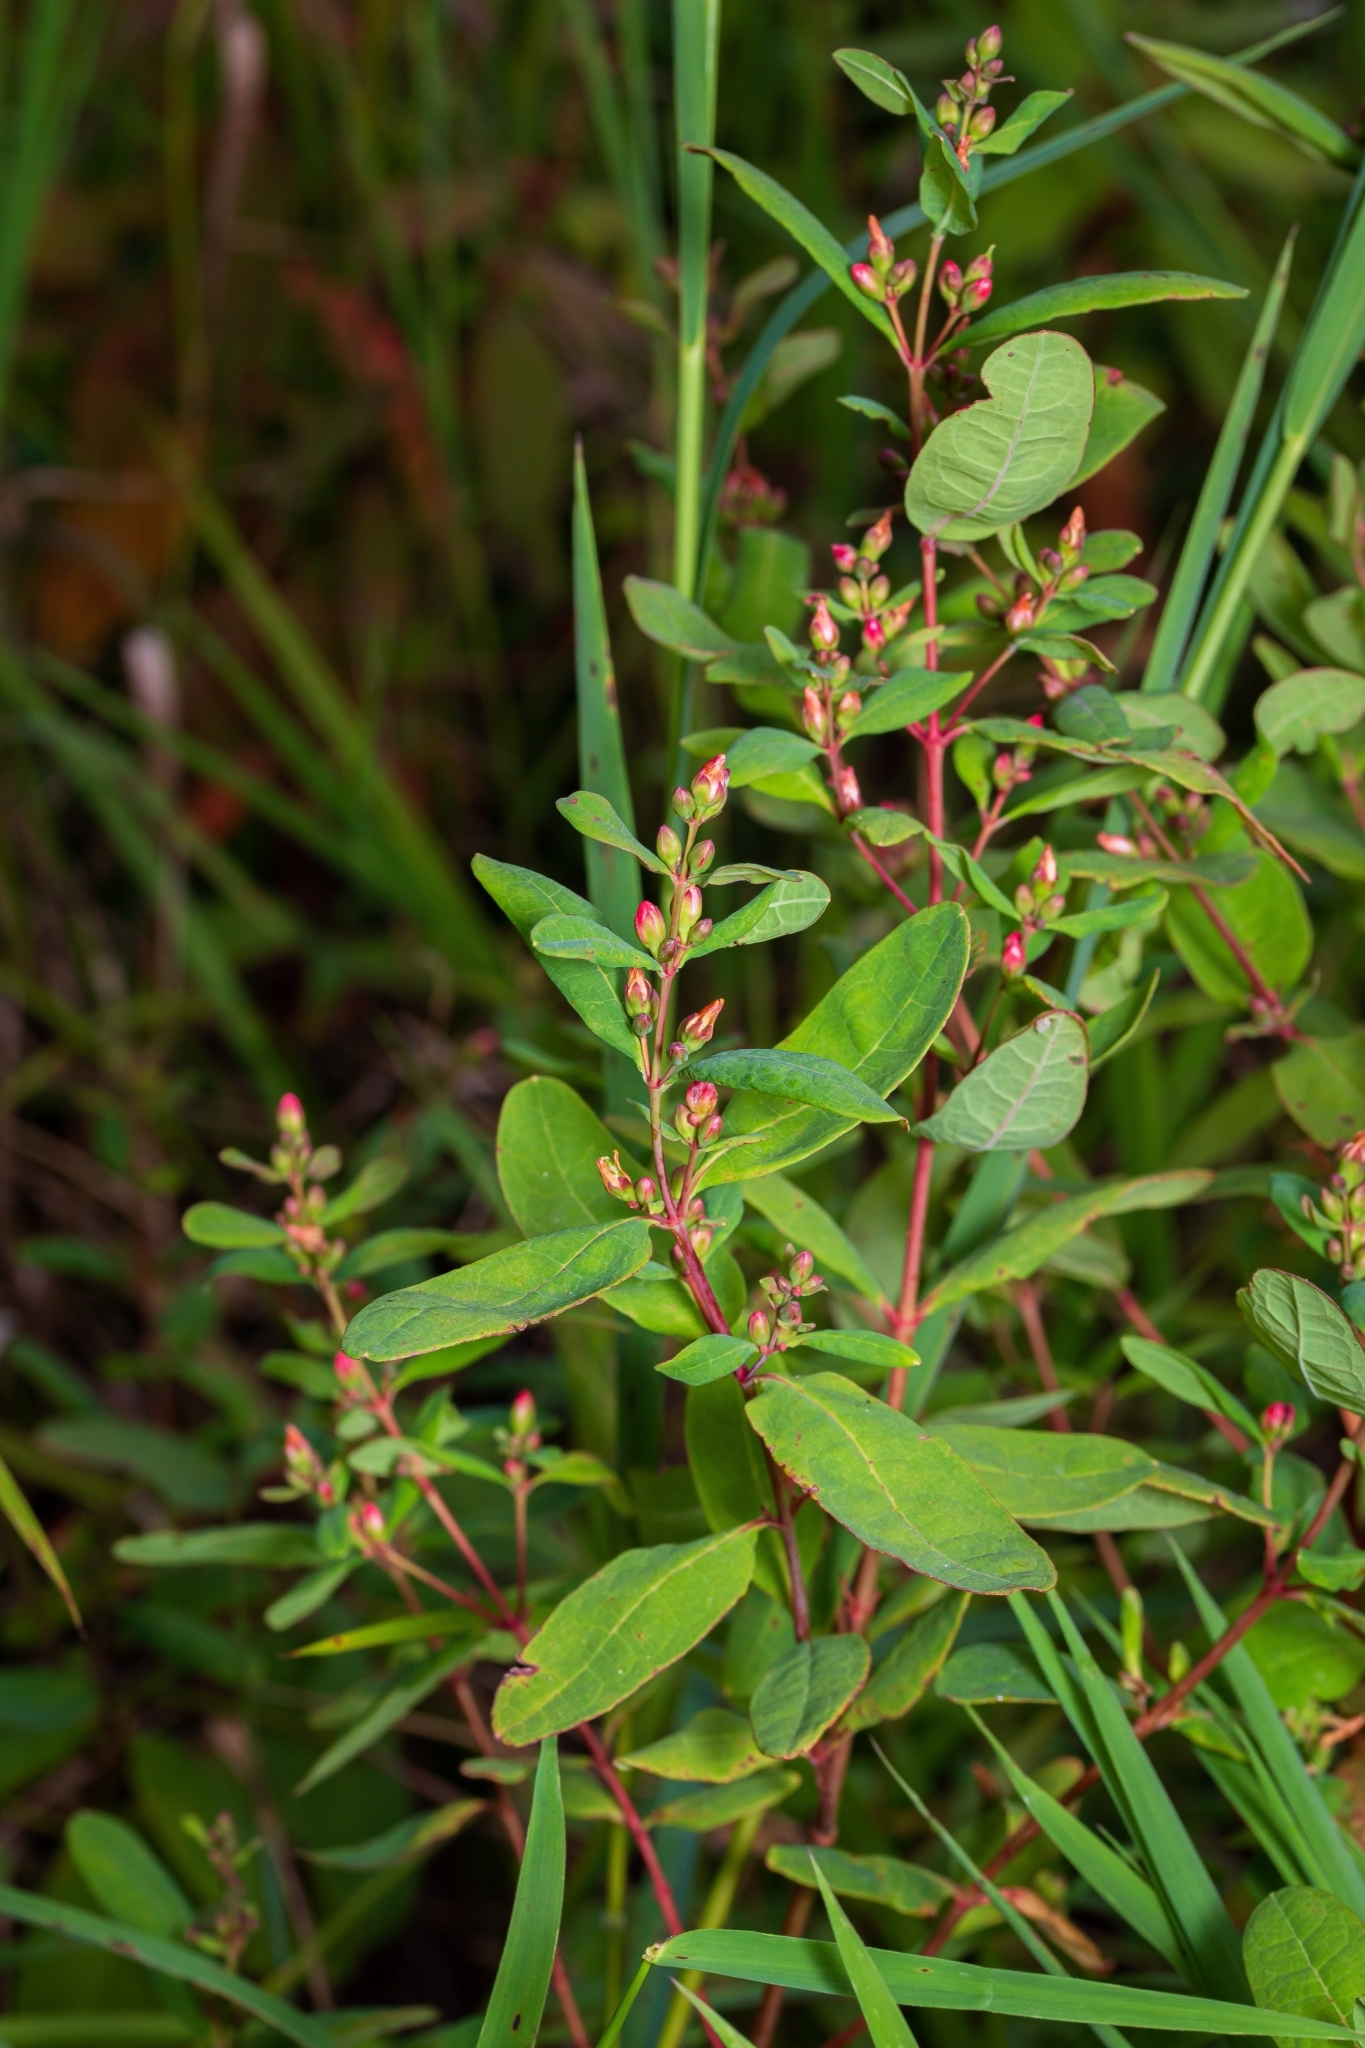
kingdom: Plantae
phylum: Tracheophyta
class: Magnoliopsida
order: Malpighiales
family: Hypericaceae
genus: Triadenum
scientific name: Triadenum walteri
